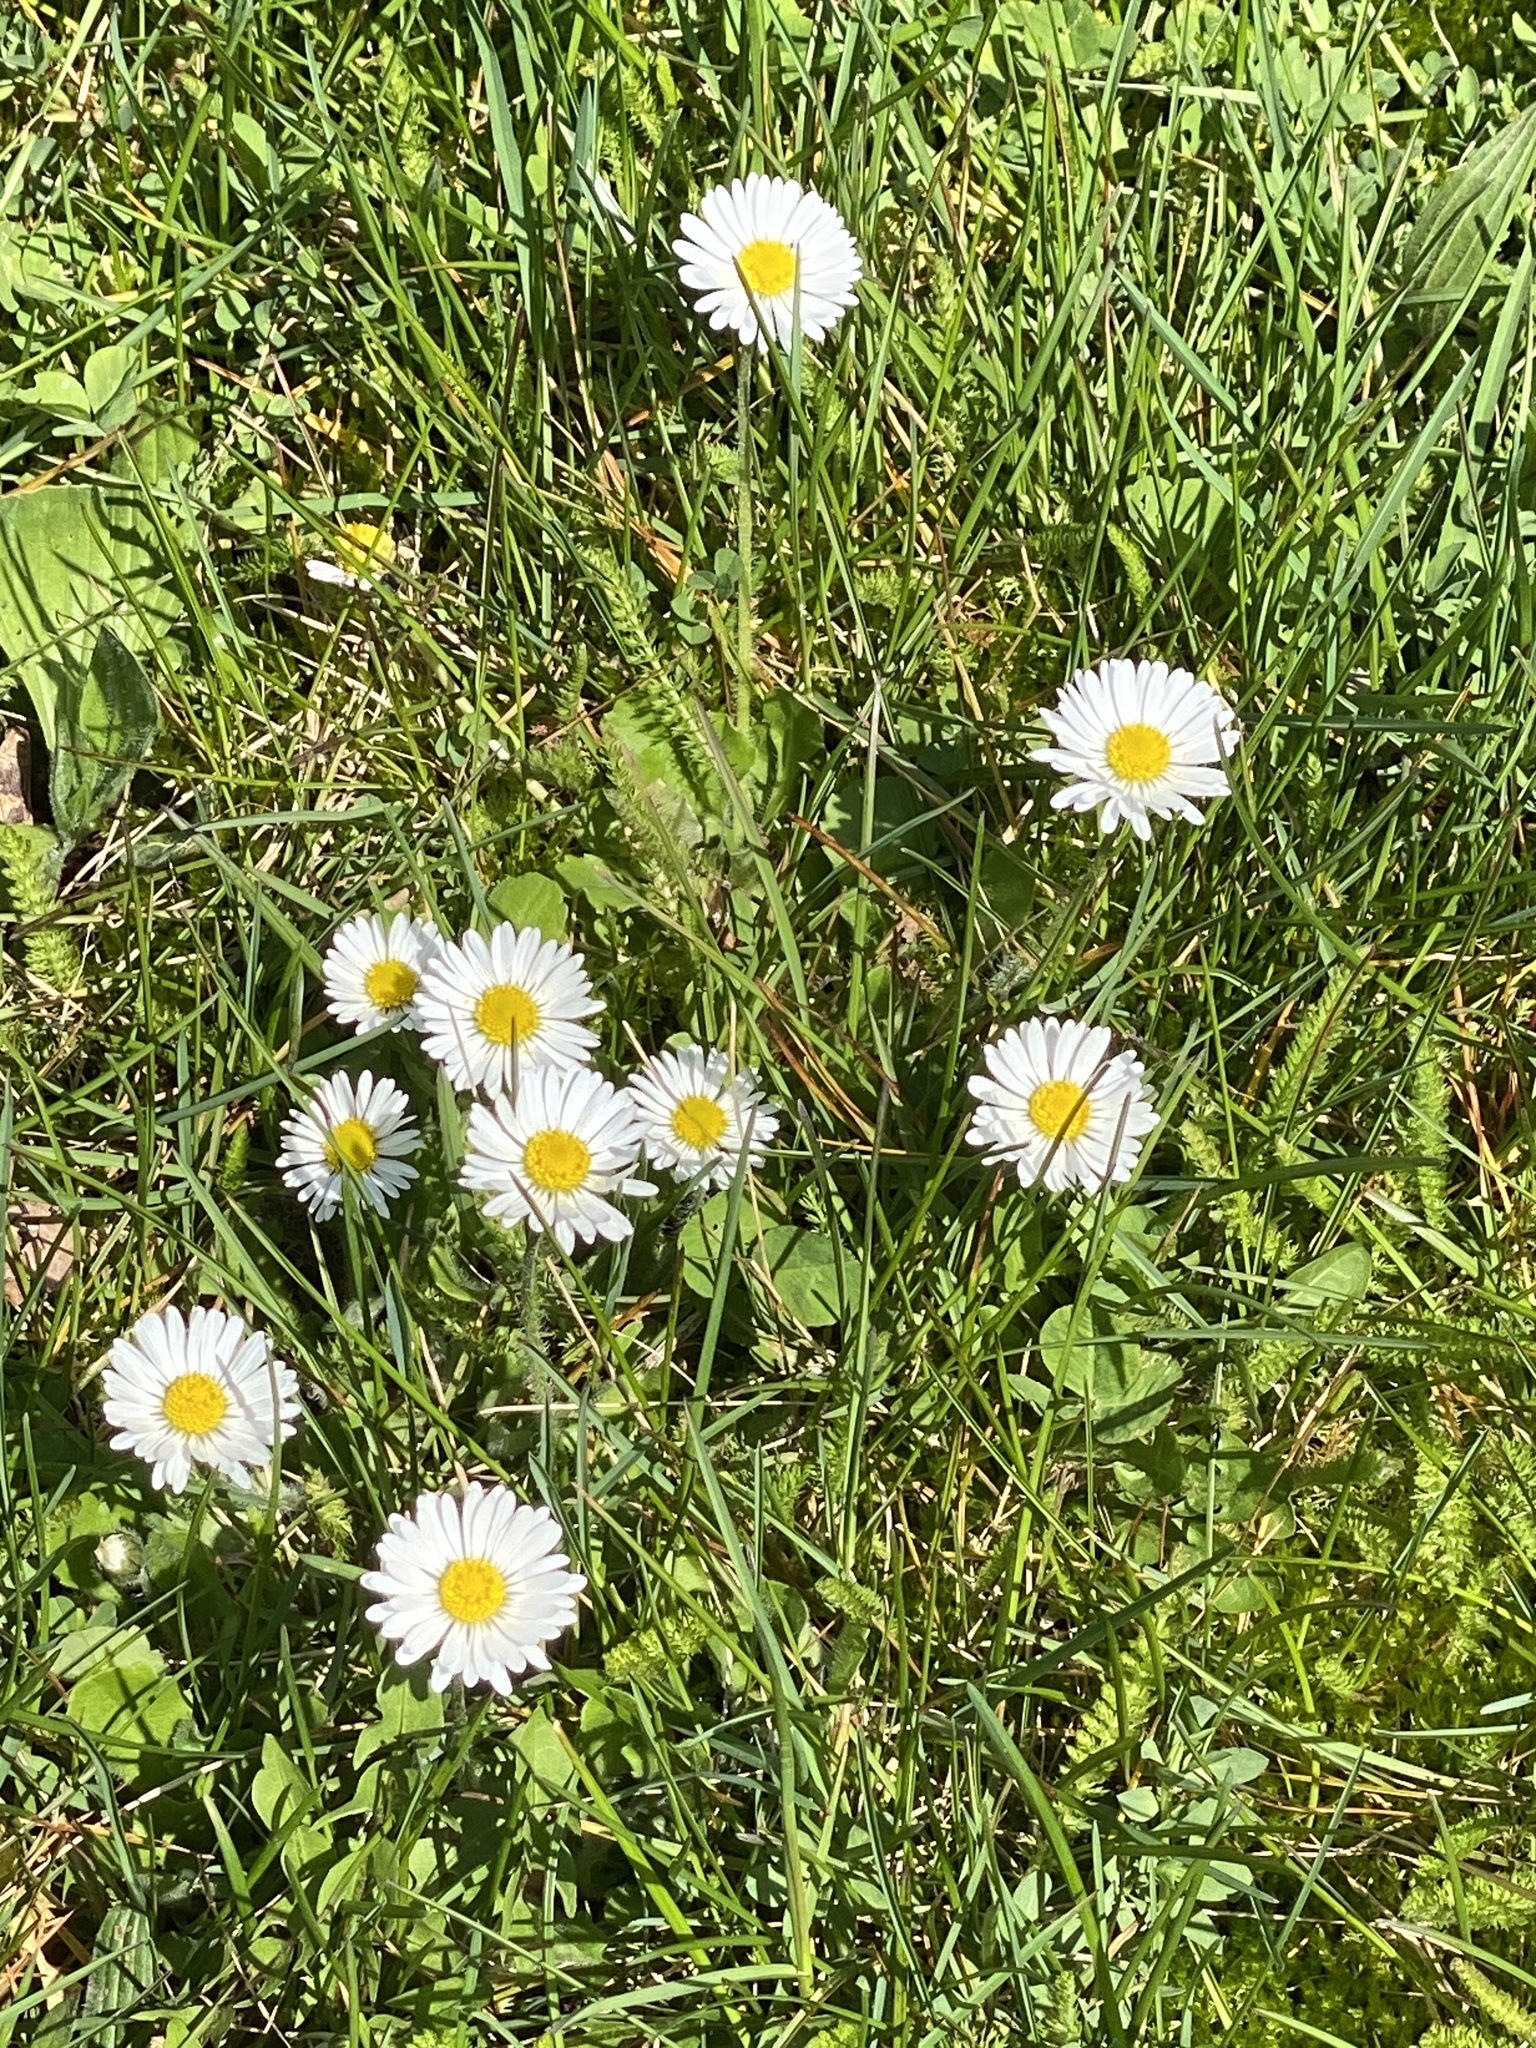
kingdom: Plantae
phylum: Tracheophyta
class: Magnoliopsida
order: Asterales
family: Asteraceae
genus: Bellis
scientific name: Bellis perennis
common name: Lawndaisy
